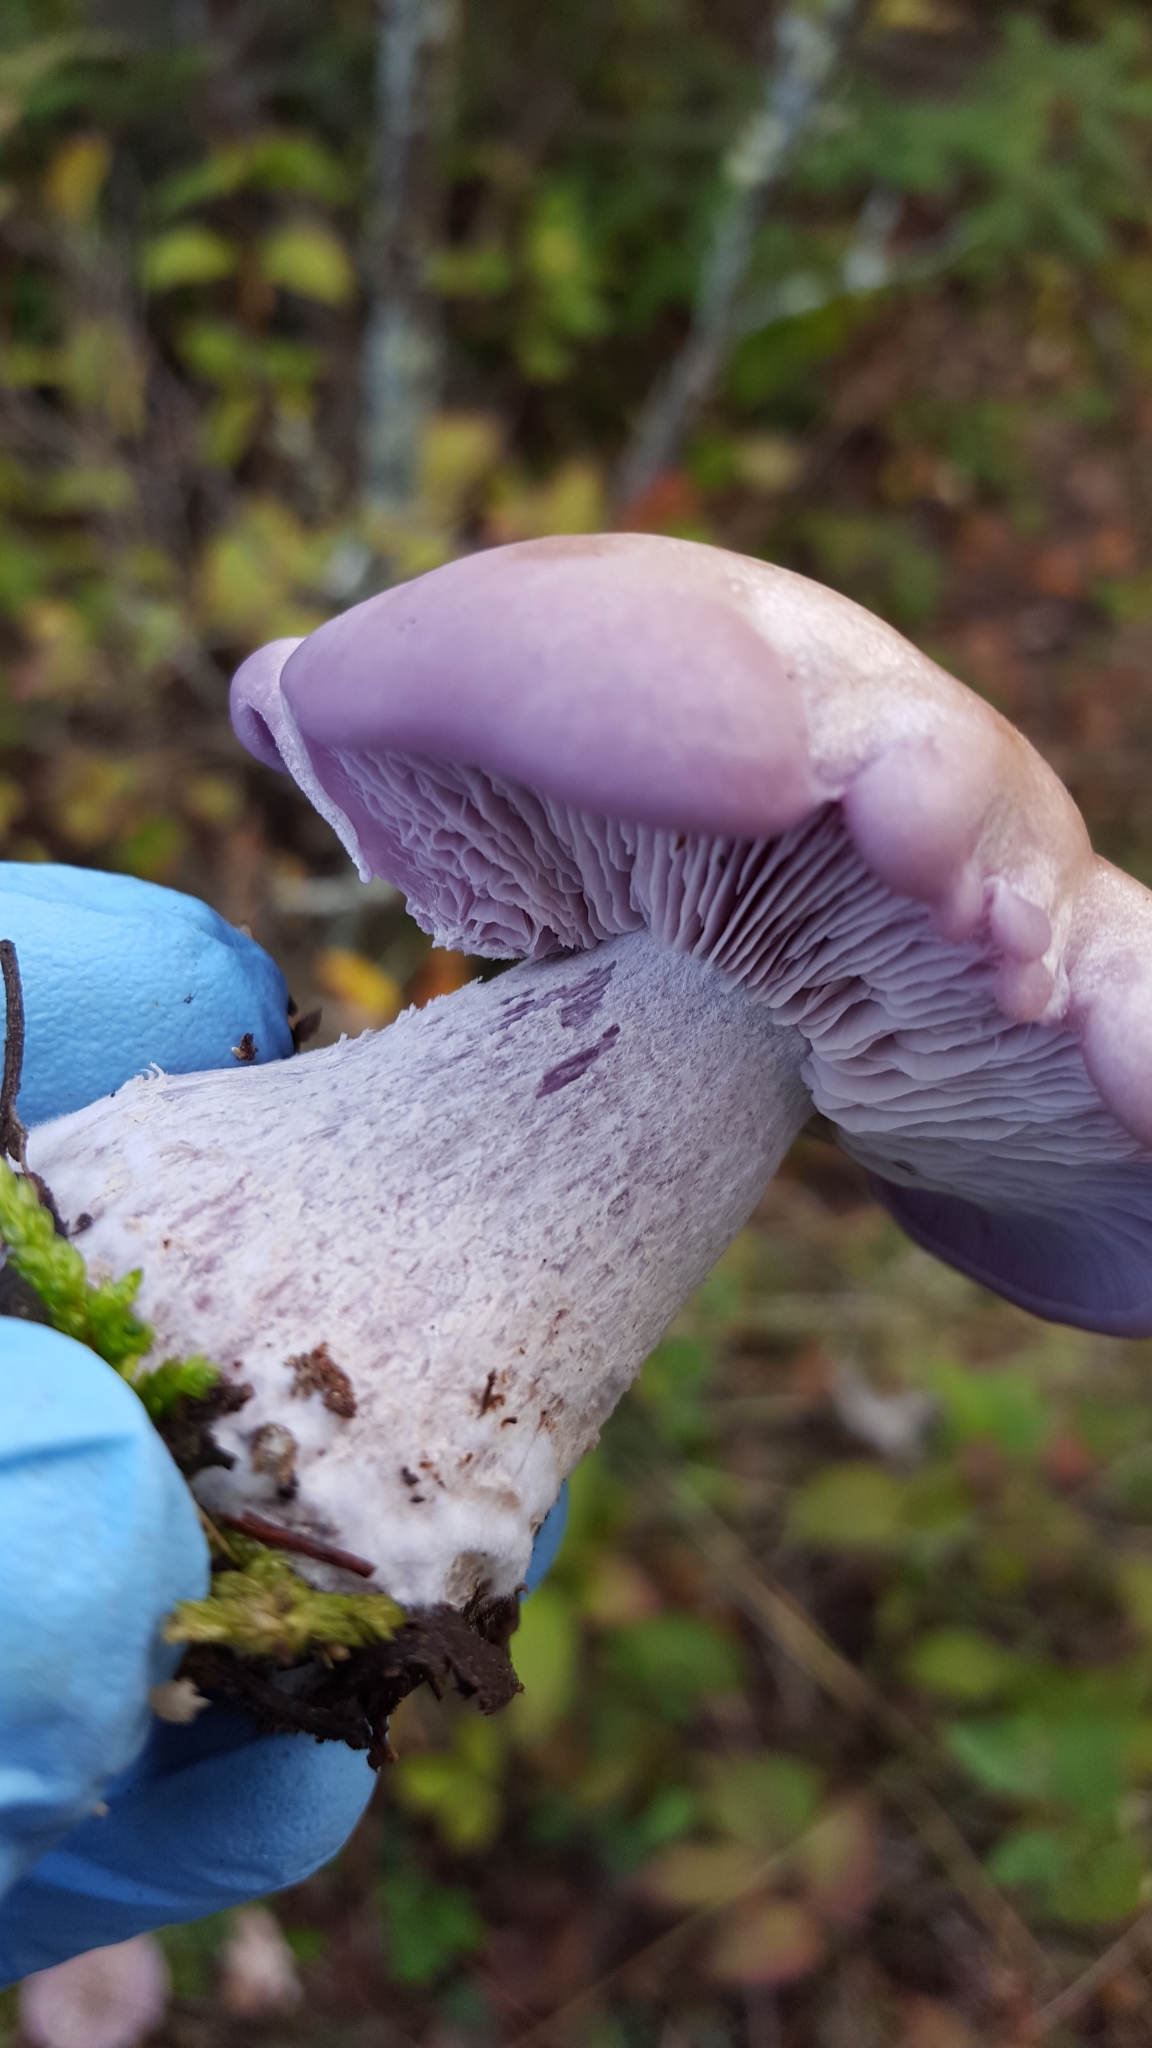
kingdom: Fungi
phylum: Basidiomycota
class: Agaricomycetes
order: Agaricales
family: Tricholomataceae
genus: Collybia
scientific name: Collybia
